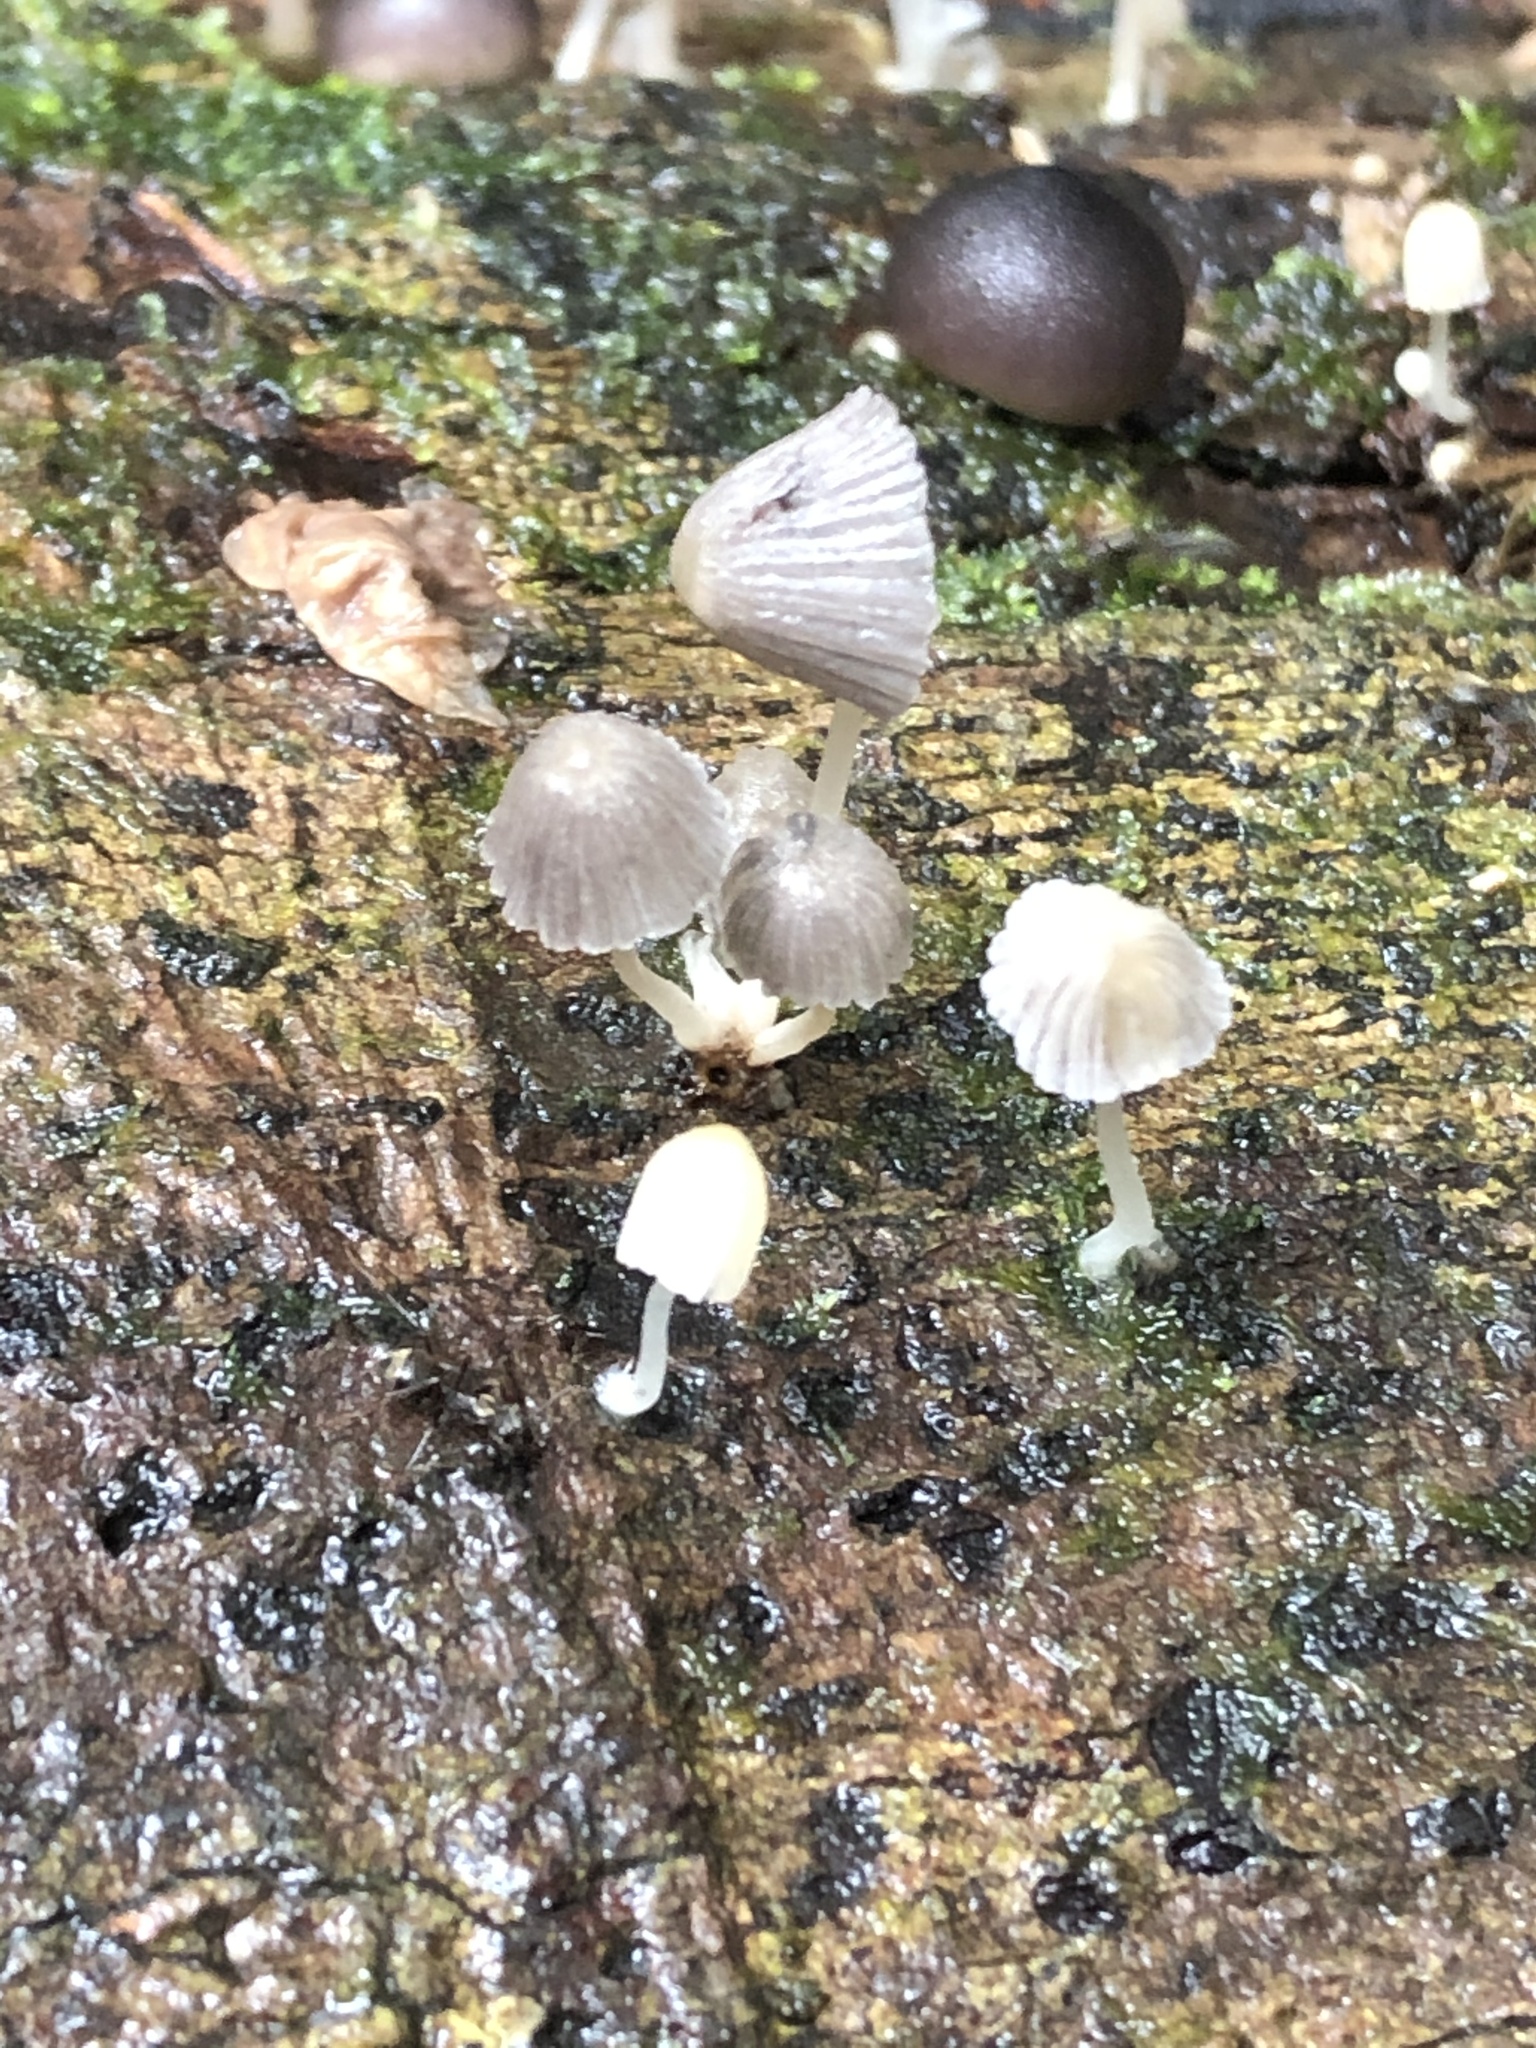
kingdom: Fungi
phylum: Basidiomycota
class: Agaricomycetes
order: Agaricales
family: Psathyrellaceae
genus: Coprinellus
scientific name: Coprinellus disseminatus
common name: Fairies' bonnets
